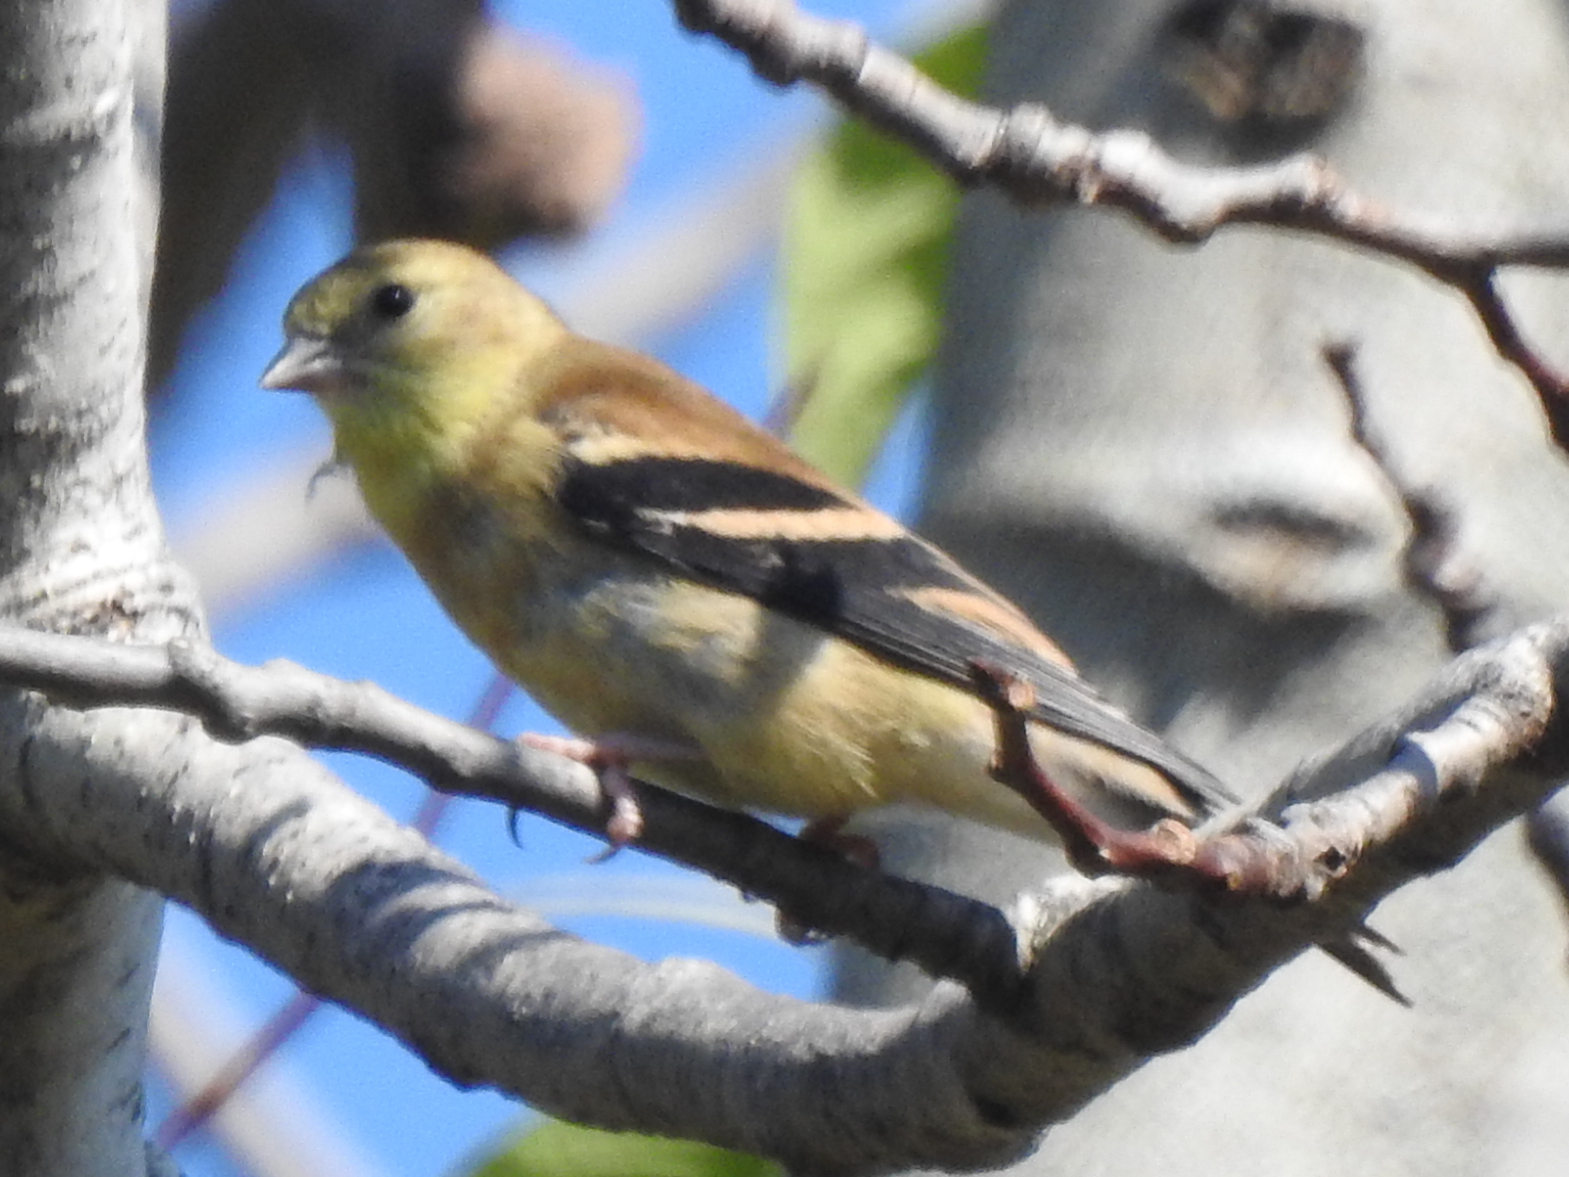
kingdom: Animalia
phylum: Chordata
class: Aves
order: Passeriformes
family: Fringillidae
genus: Spinus
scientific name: Spinus tristis
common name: American goldfinch
